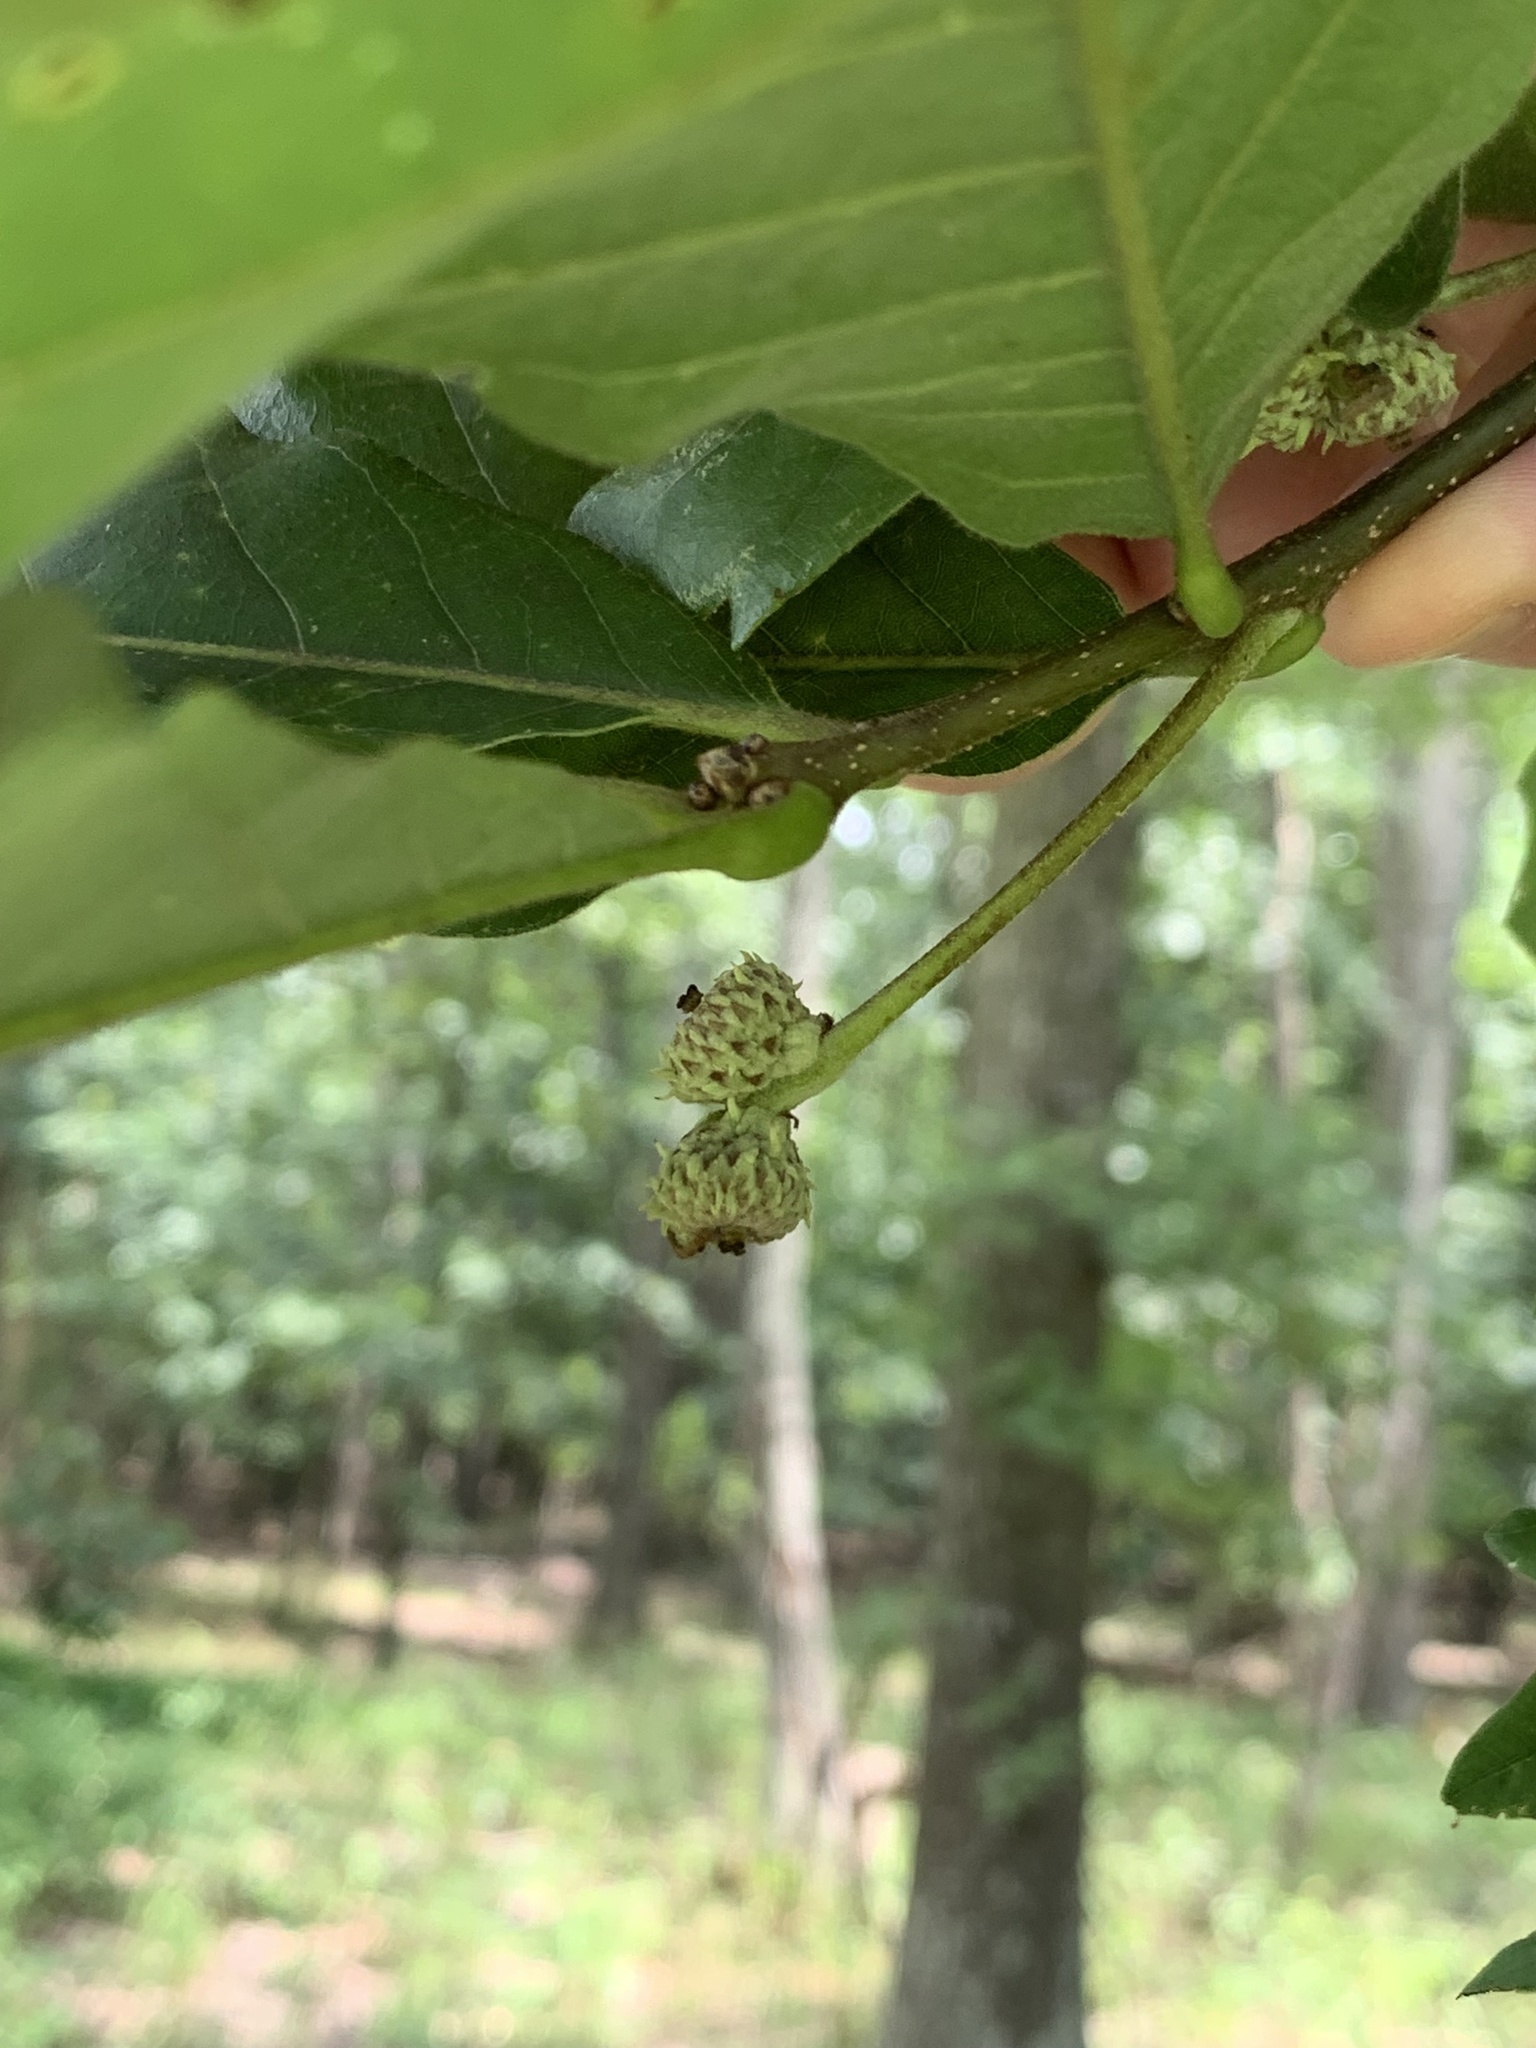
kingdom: Plantae
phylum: Tracheophyta
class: Magnoliopsida
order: Fagales
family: Fagaceae
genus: Quercus
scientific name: Quercus bicolor
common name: Swamp white oak
